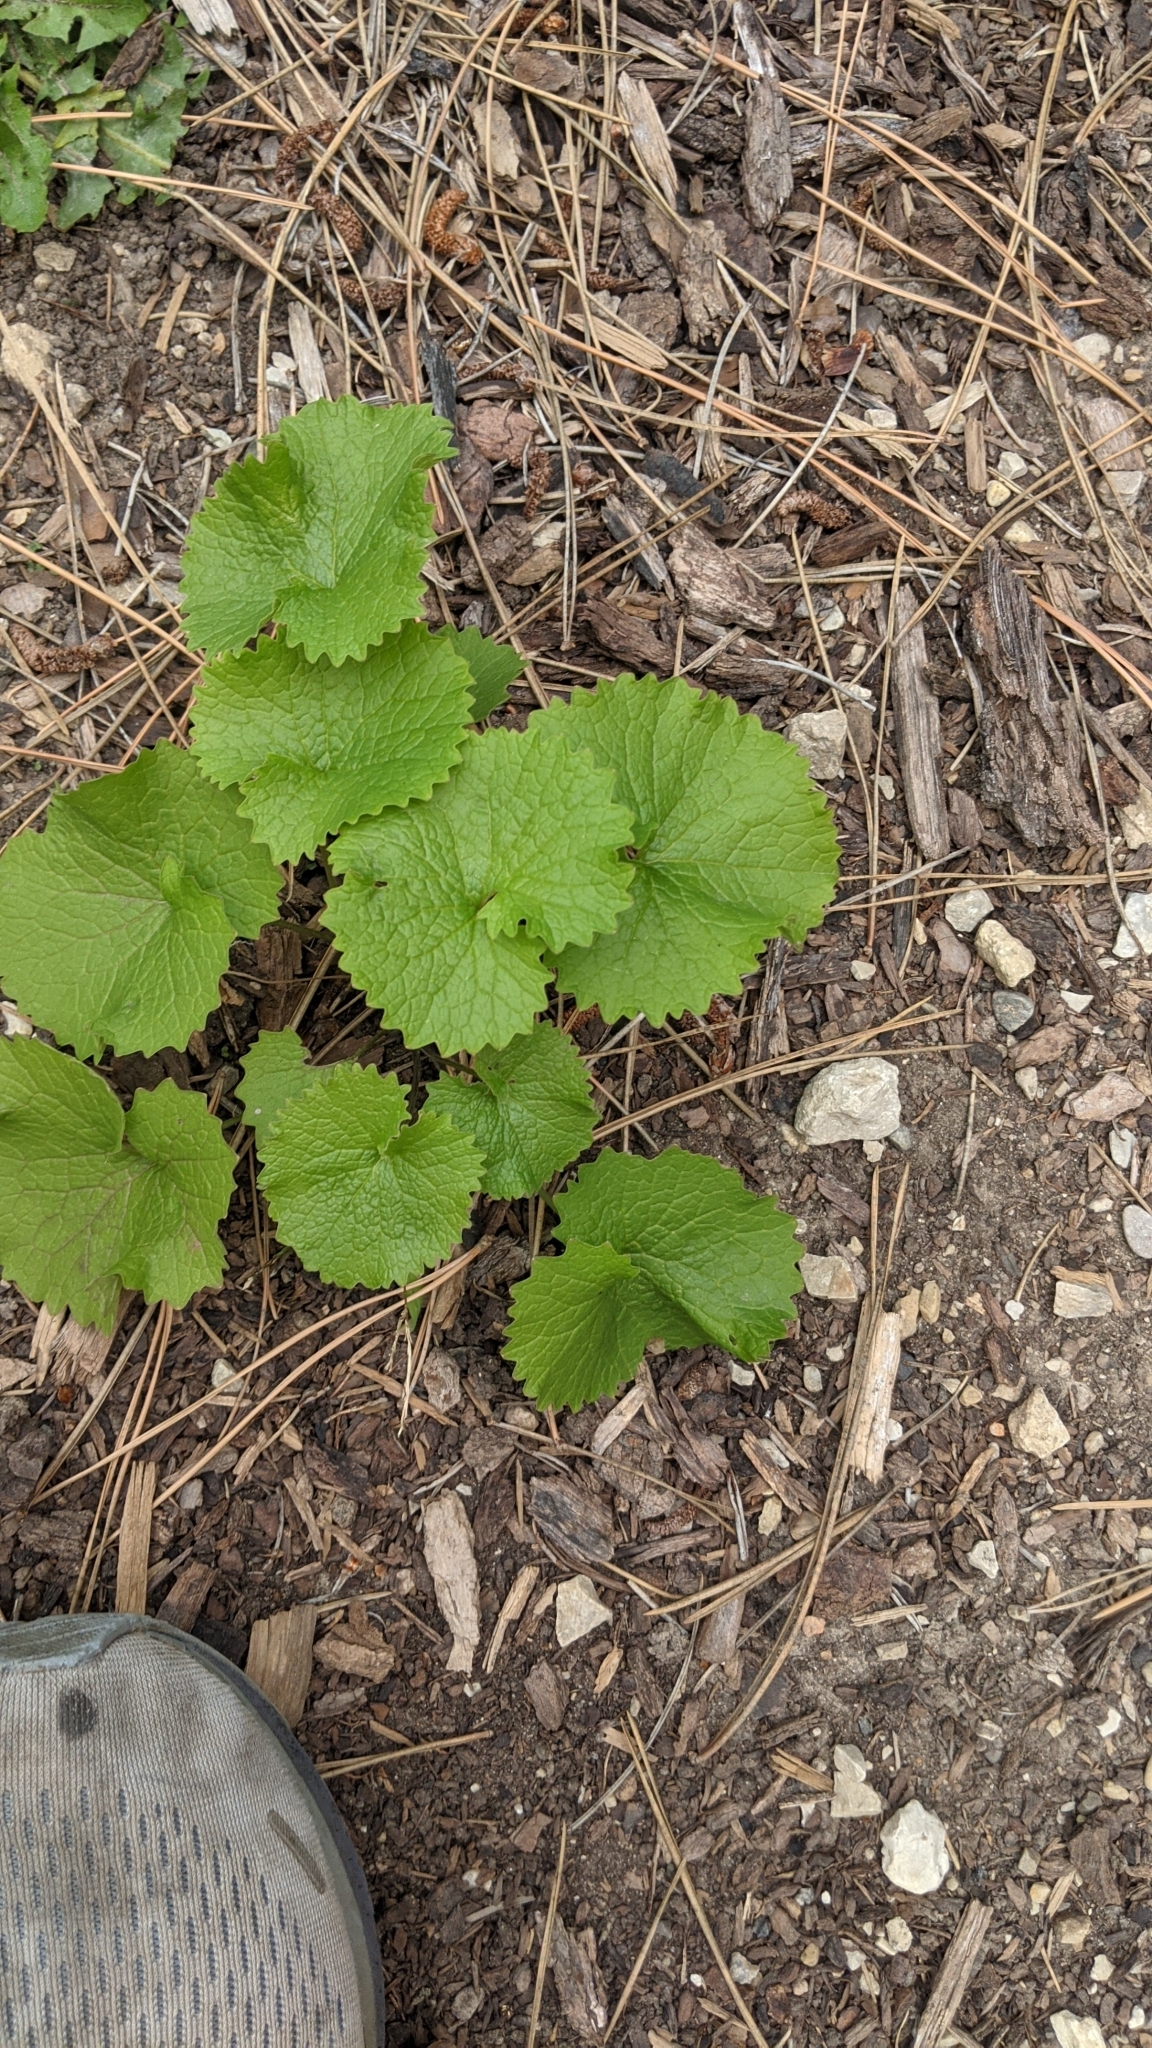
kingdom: Plantae
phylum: Tracheophyta
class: Magnoliopsida
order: Brassicales
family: Brassicaceae
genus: Alliaria
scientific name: Alliaria petiolata
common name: Garlic mustard
